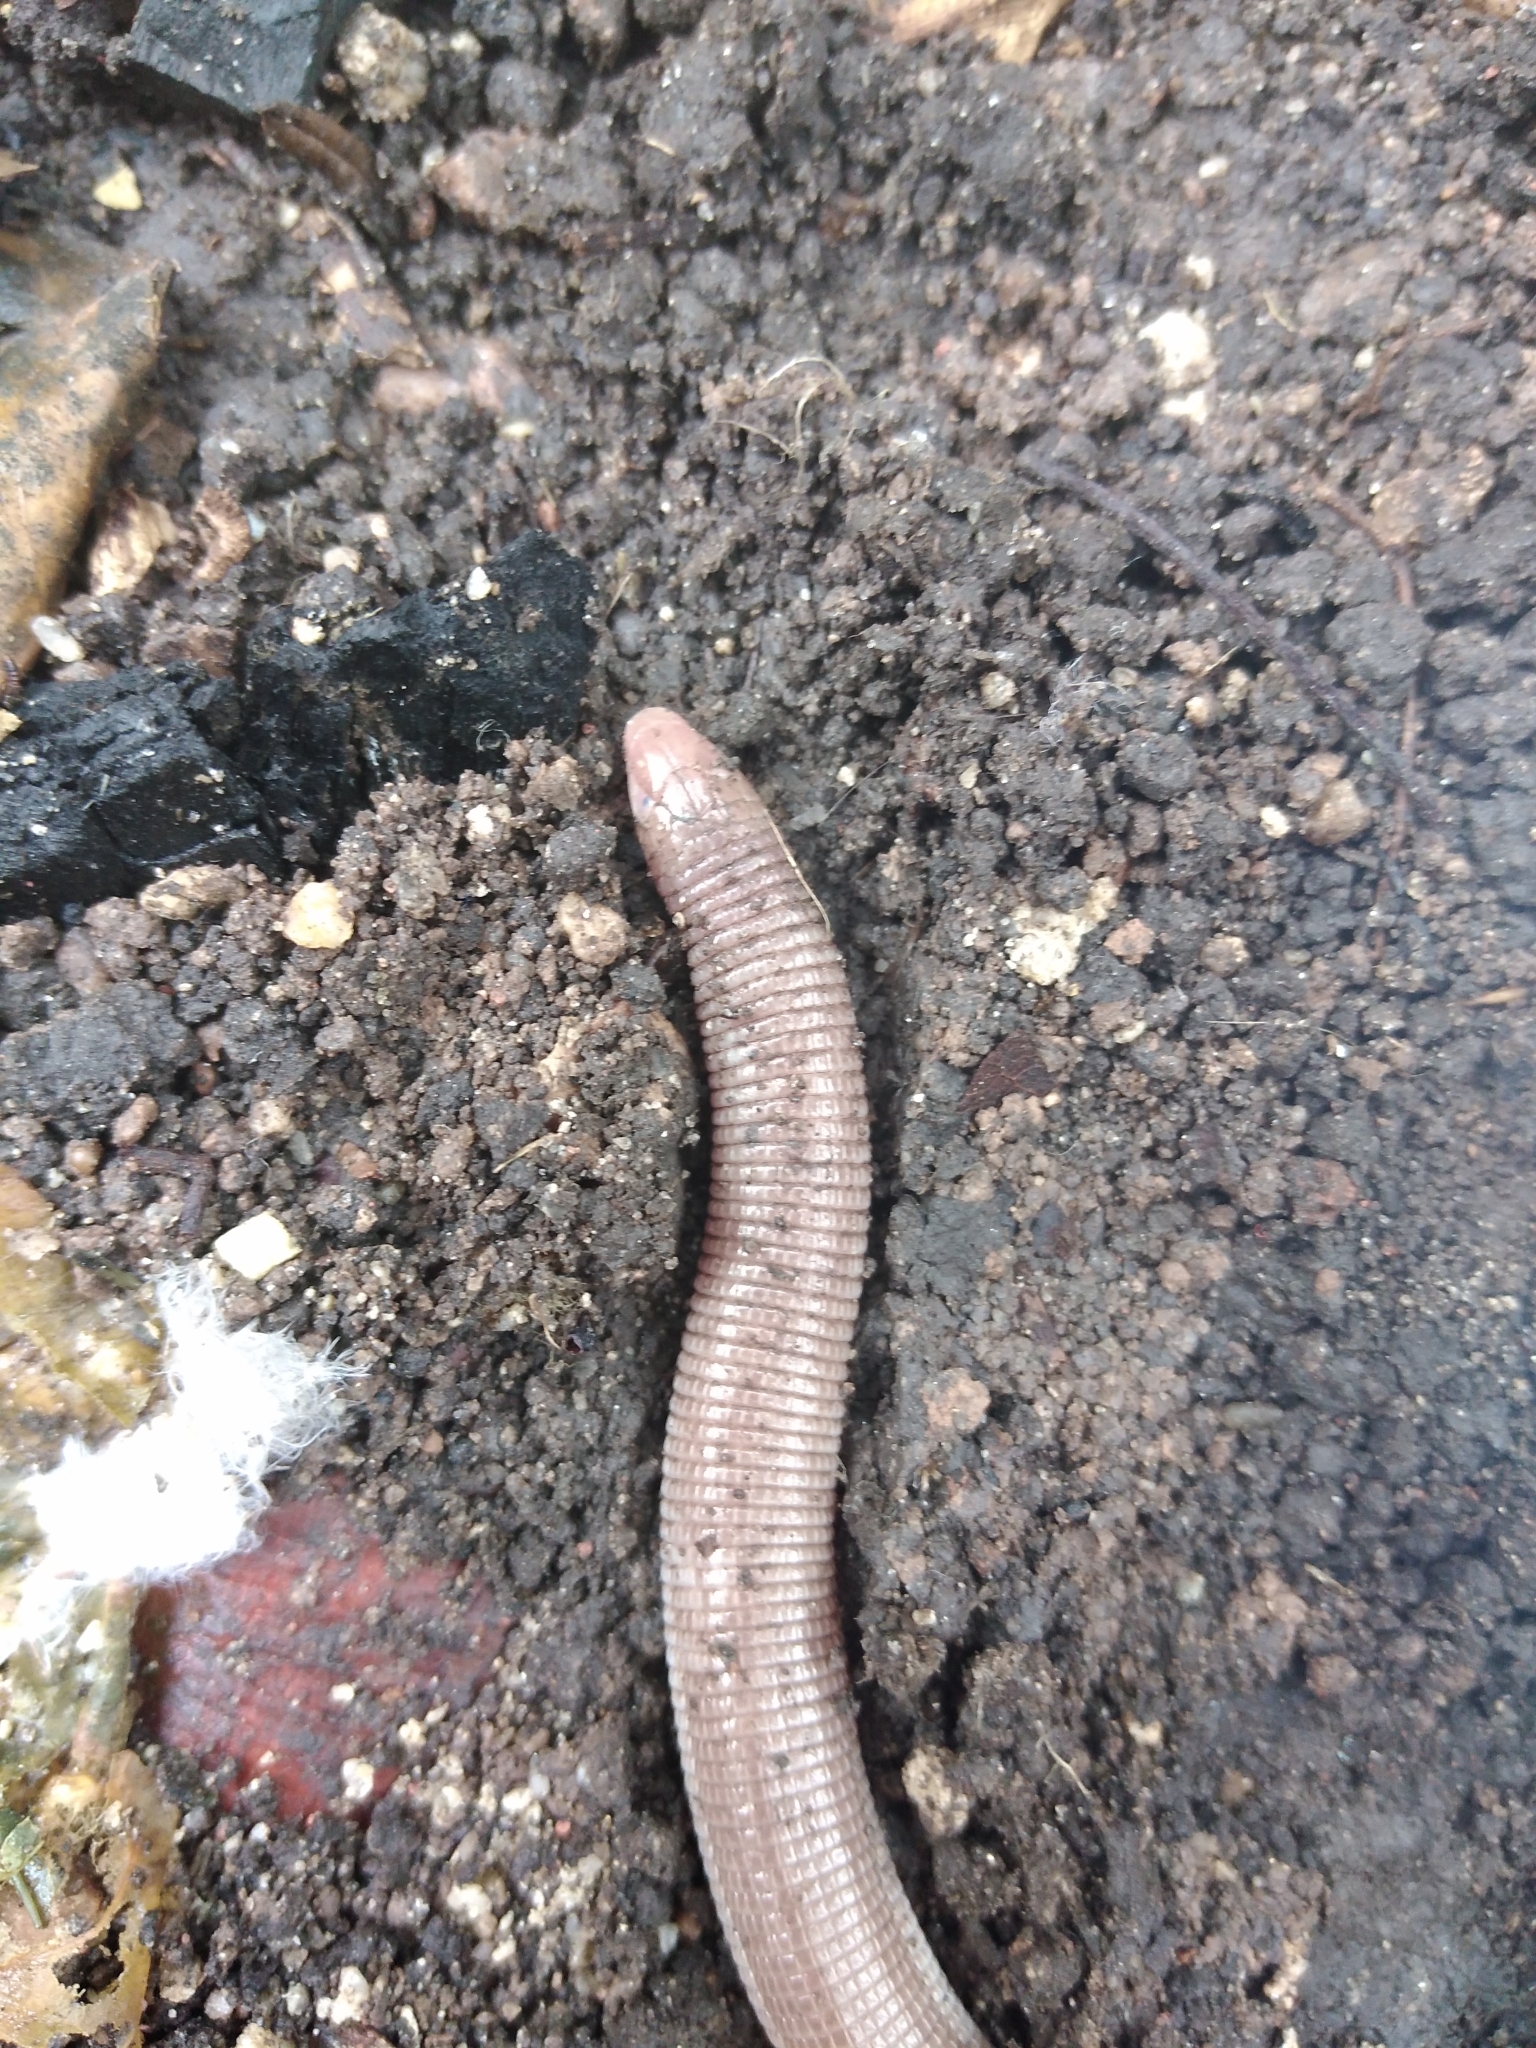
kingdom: Animalia
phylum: Chordata
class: Squamata
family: Amphisbaenidae
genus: Amphisbaena
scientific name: Amphisbaena darwinii
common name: Darwin's ringed worm lizard
